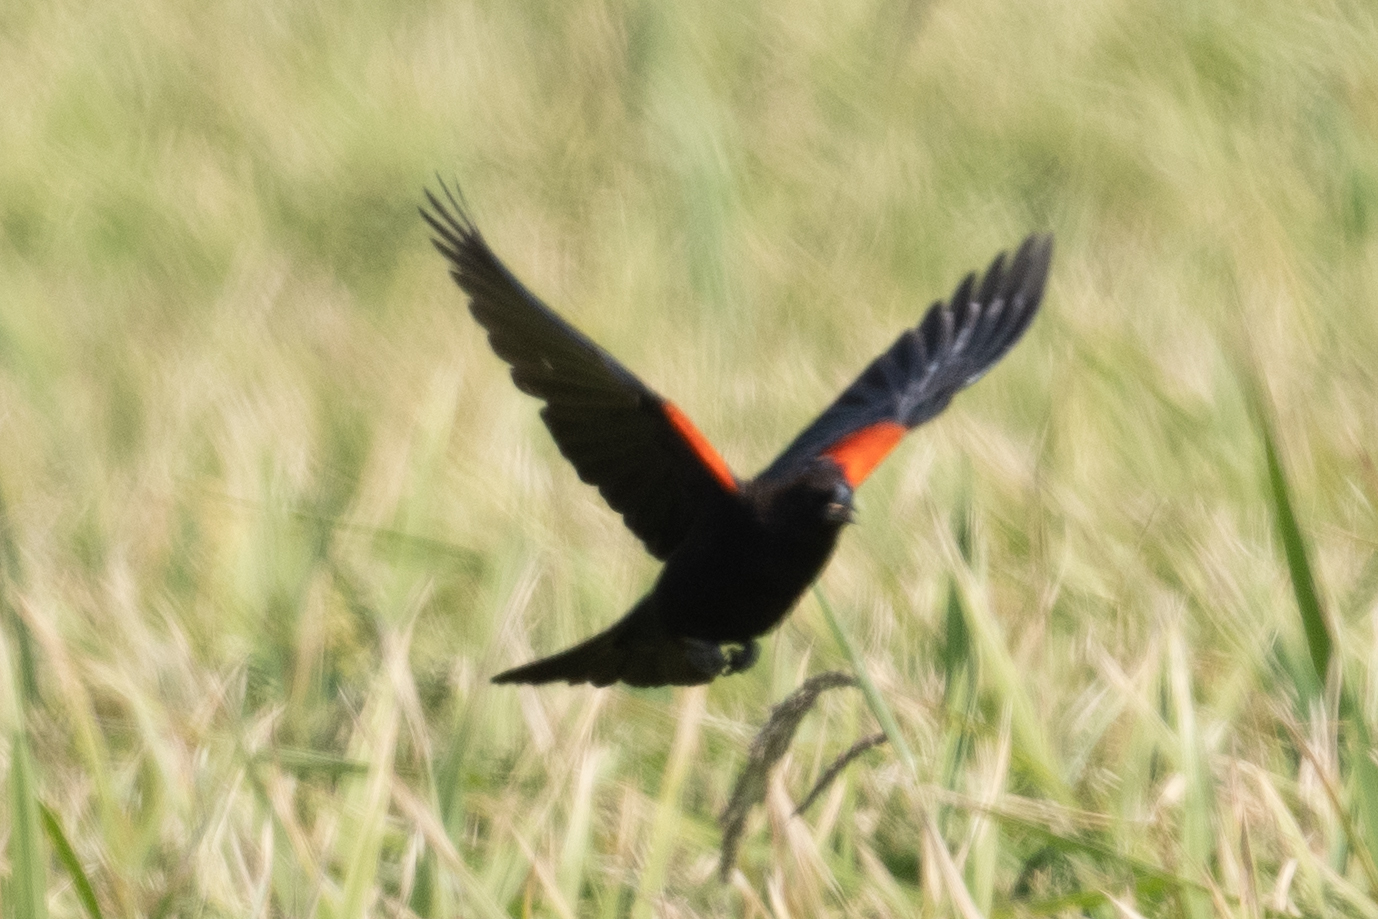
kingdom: Animalia
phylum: Chordata
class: Aves
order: Passeriformes
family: Icteridae
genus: Agelaius
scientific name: Agelaius phoeniceus
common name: Red-winged blackbird
